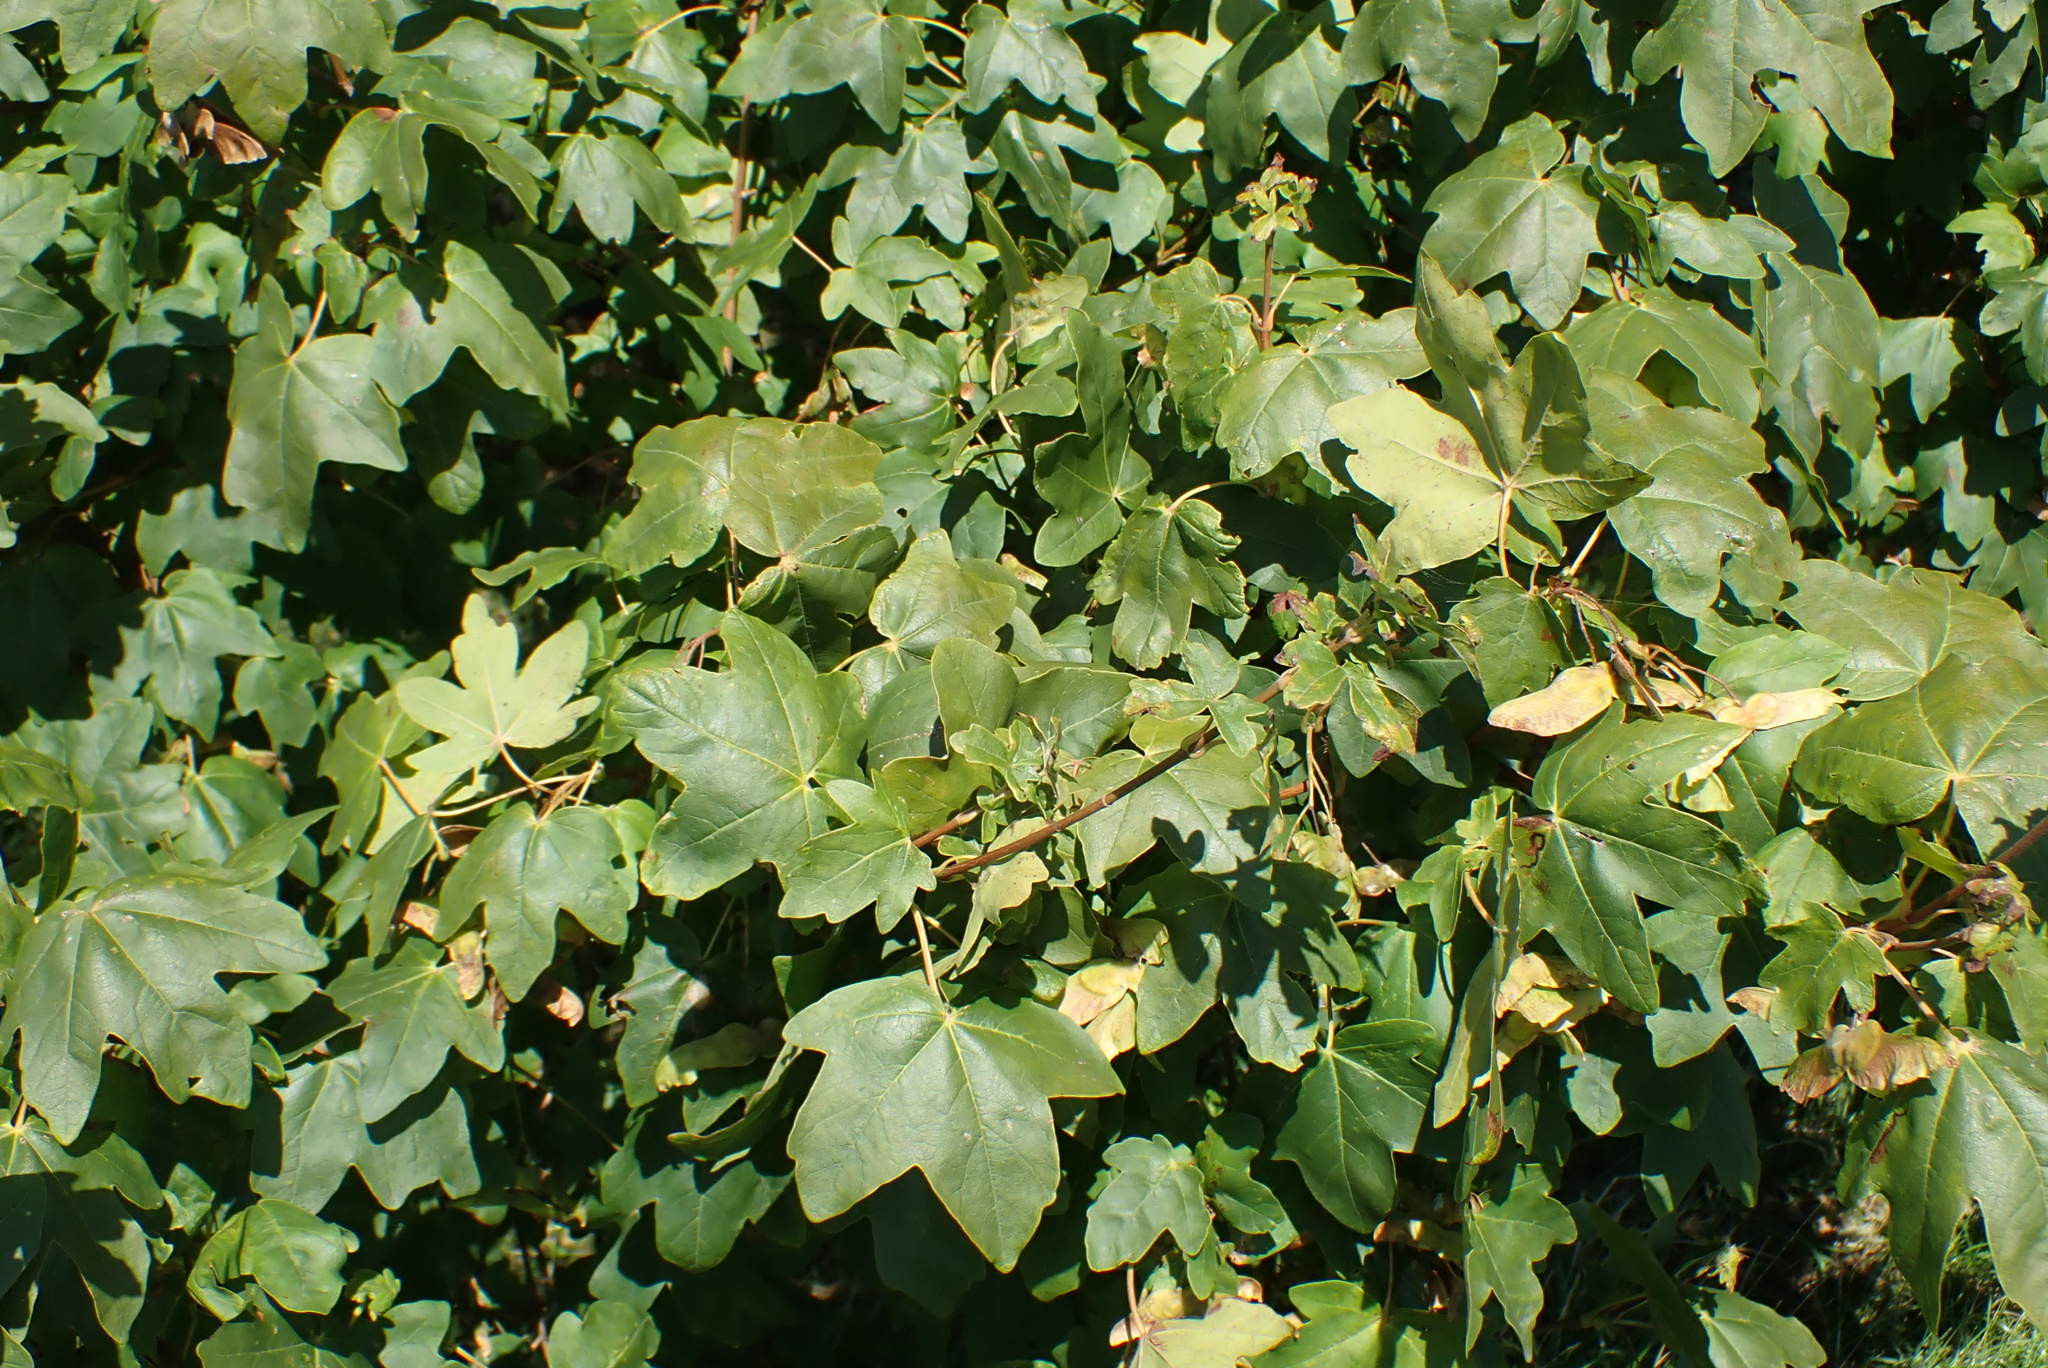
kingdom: Plantae
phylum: Tracheophyta
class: Magnoliopsida
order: Sapindales
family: Sapindaceae
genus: Acer
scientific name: Acer campestre
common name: Field maple
